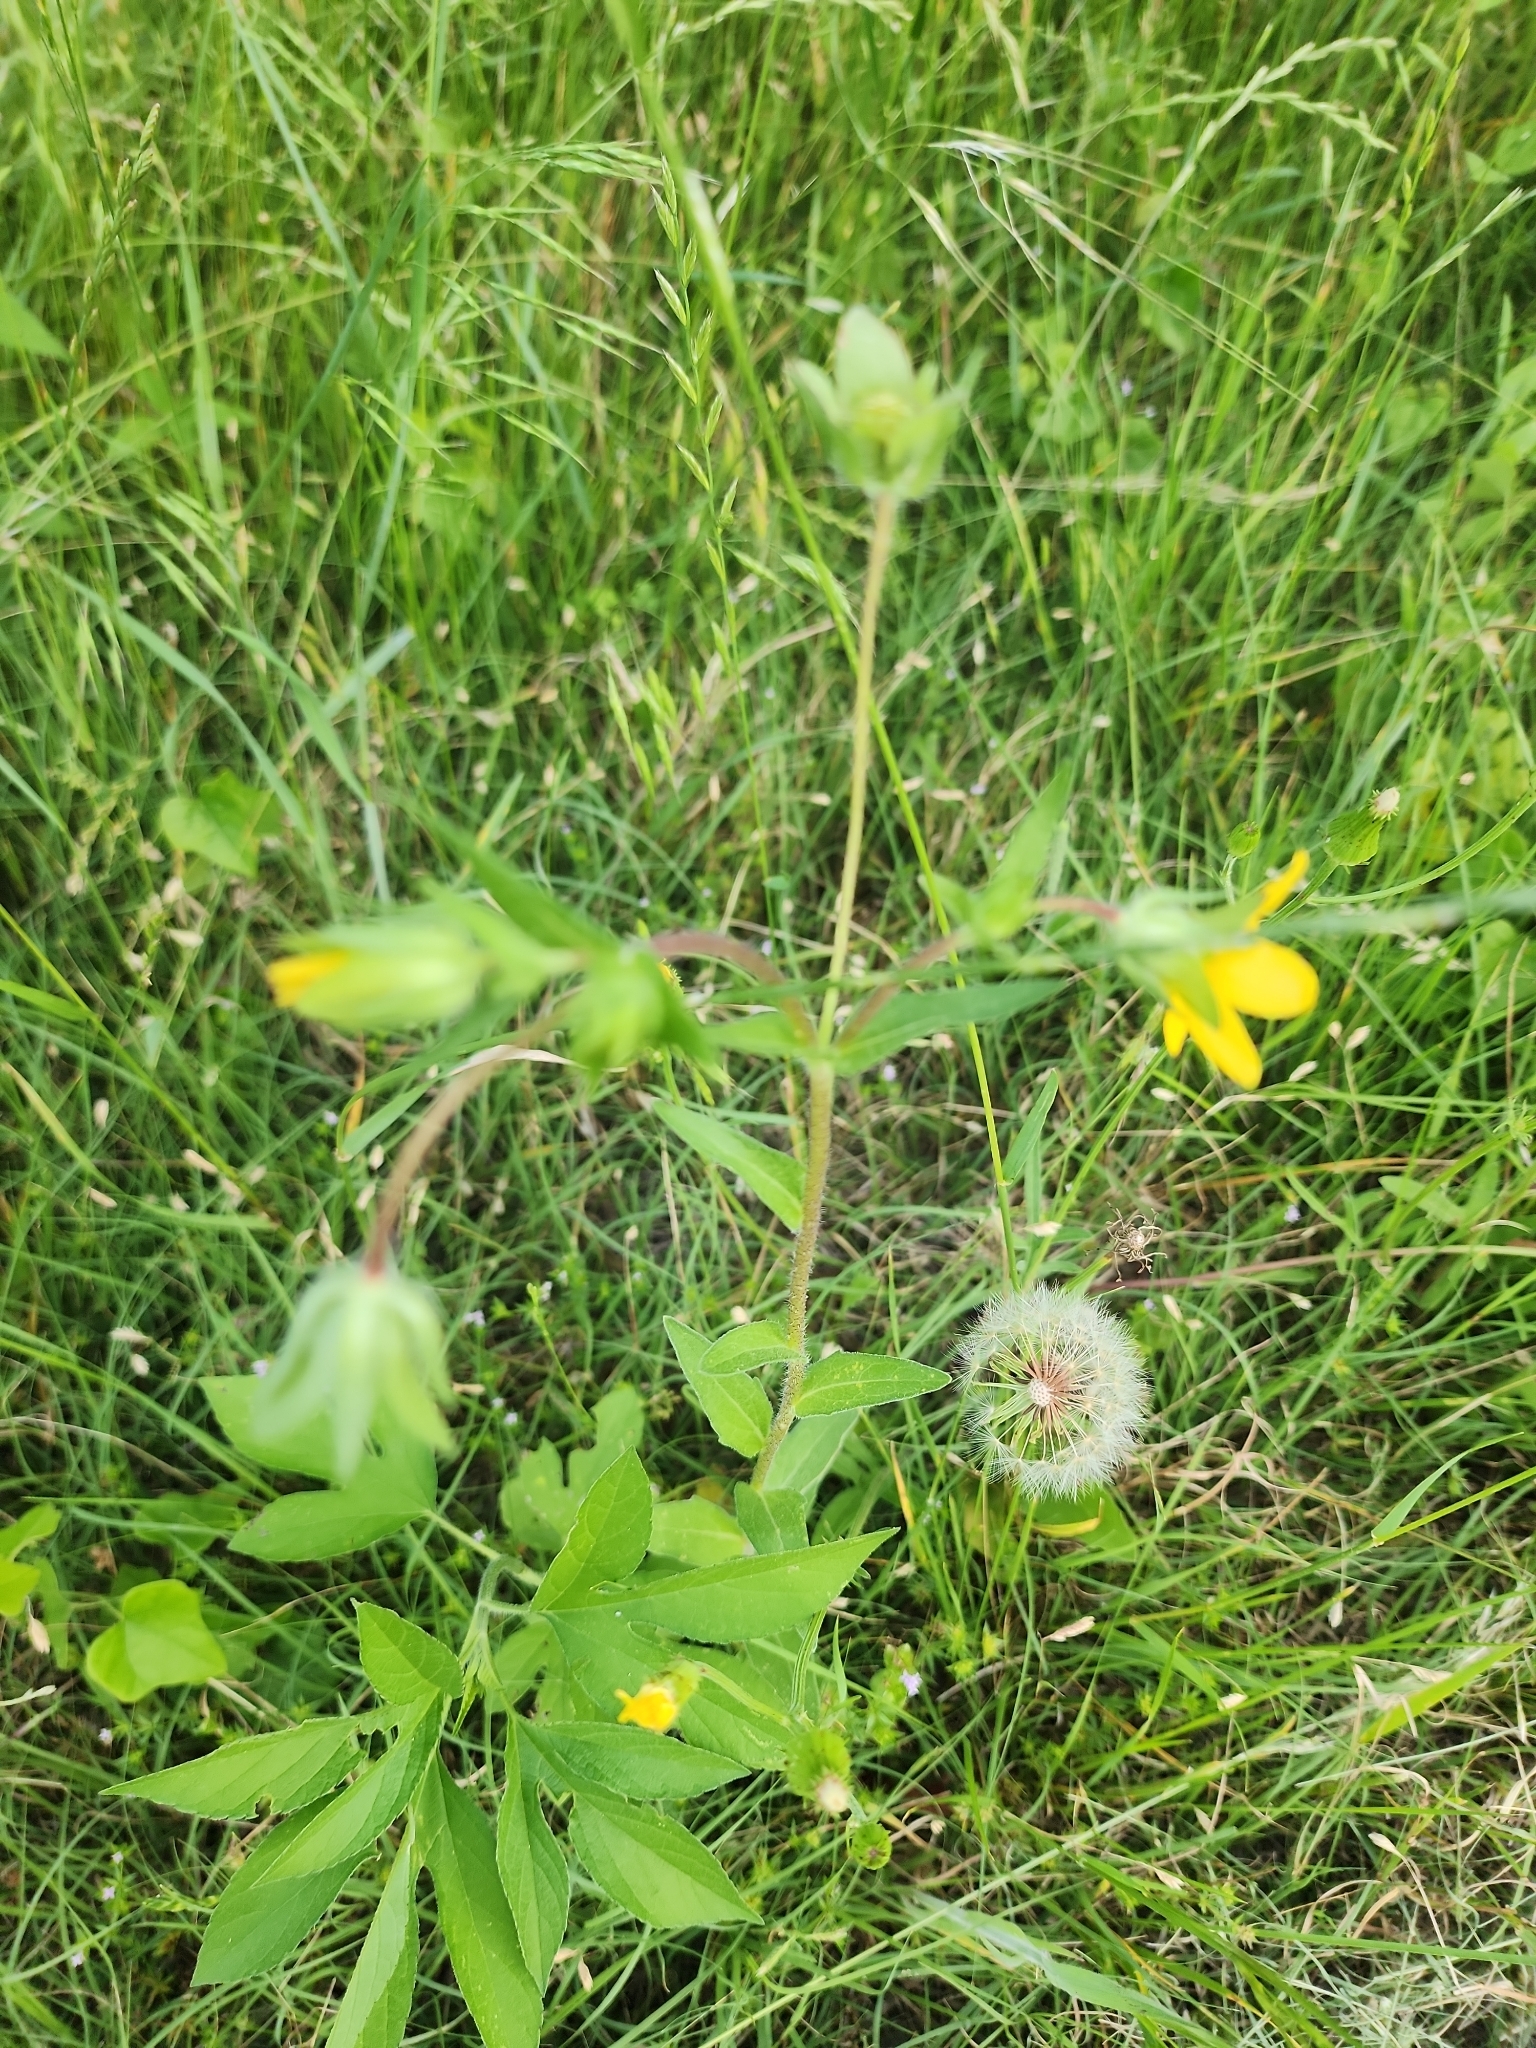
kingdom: Plantae
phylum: Tracheophyta
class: Magnoliopsida
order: Asterales
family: Asteraceae
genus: Lindheimera
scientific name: Lindheimera texana
